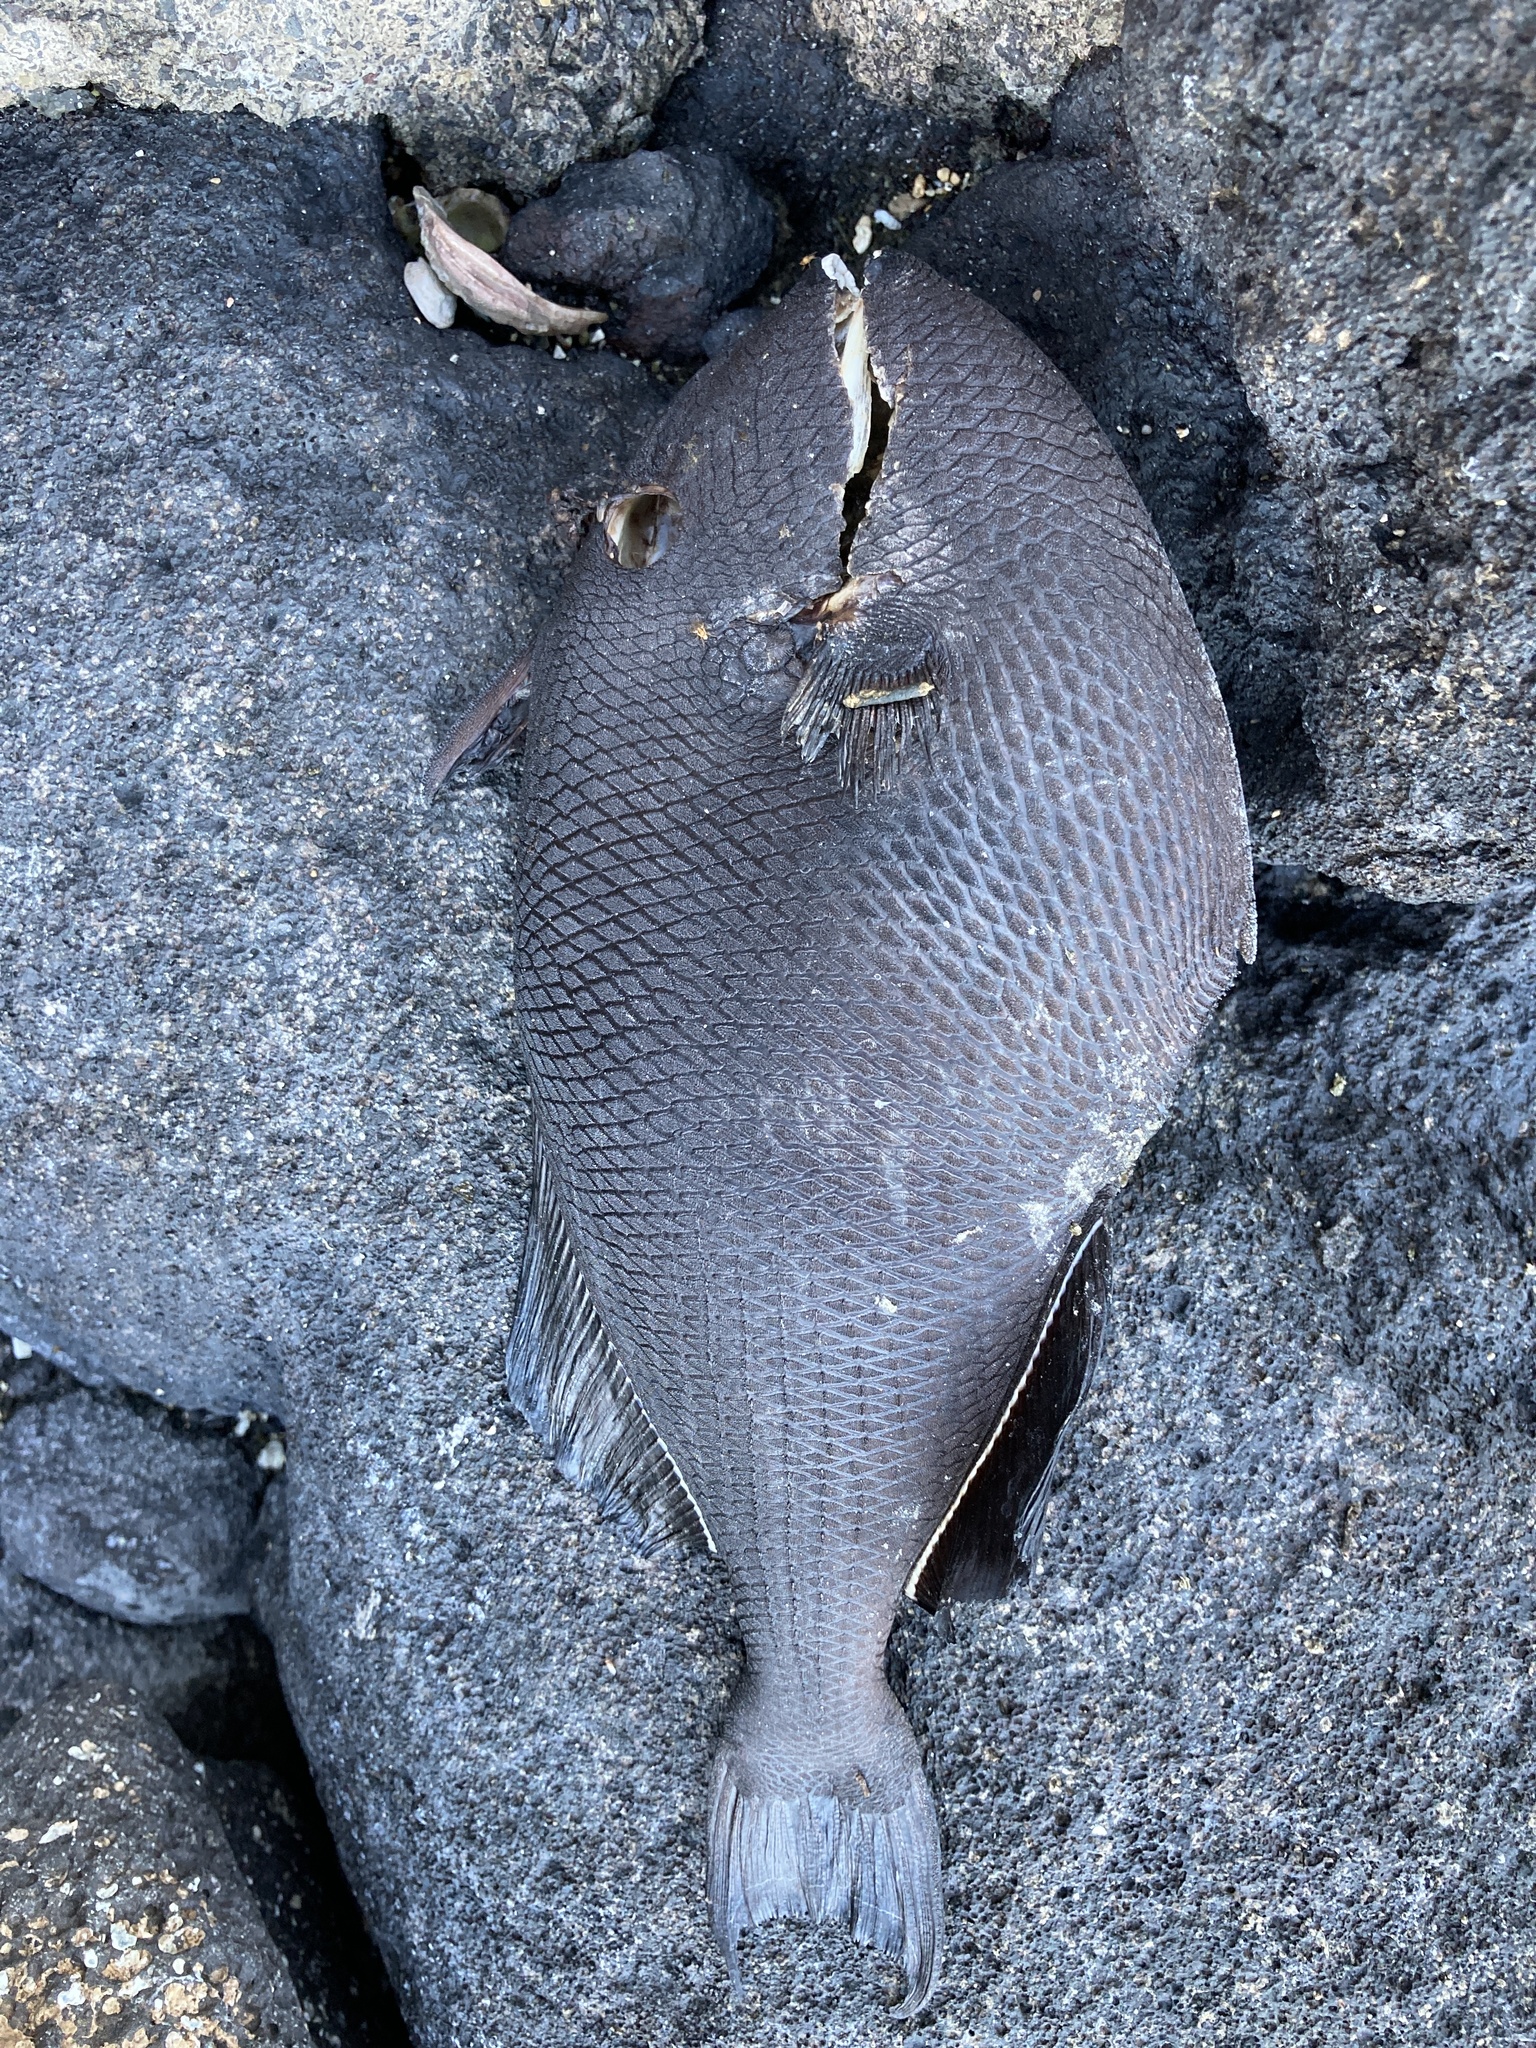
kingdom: Animalia
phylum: Chordata
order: Tetraodontiformes
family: Balistidae
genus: Melichthys
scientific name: Melichthys niger
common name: Black durgon
